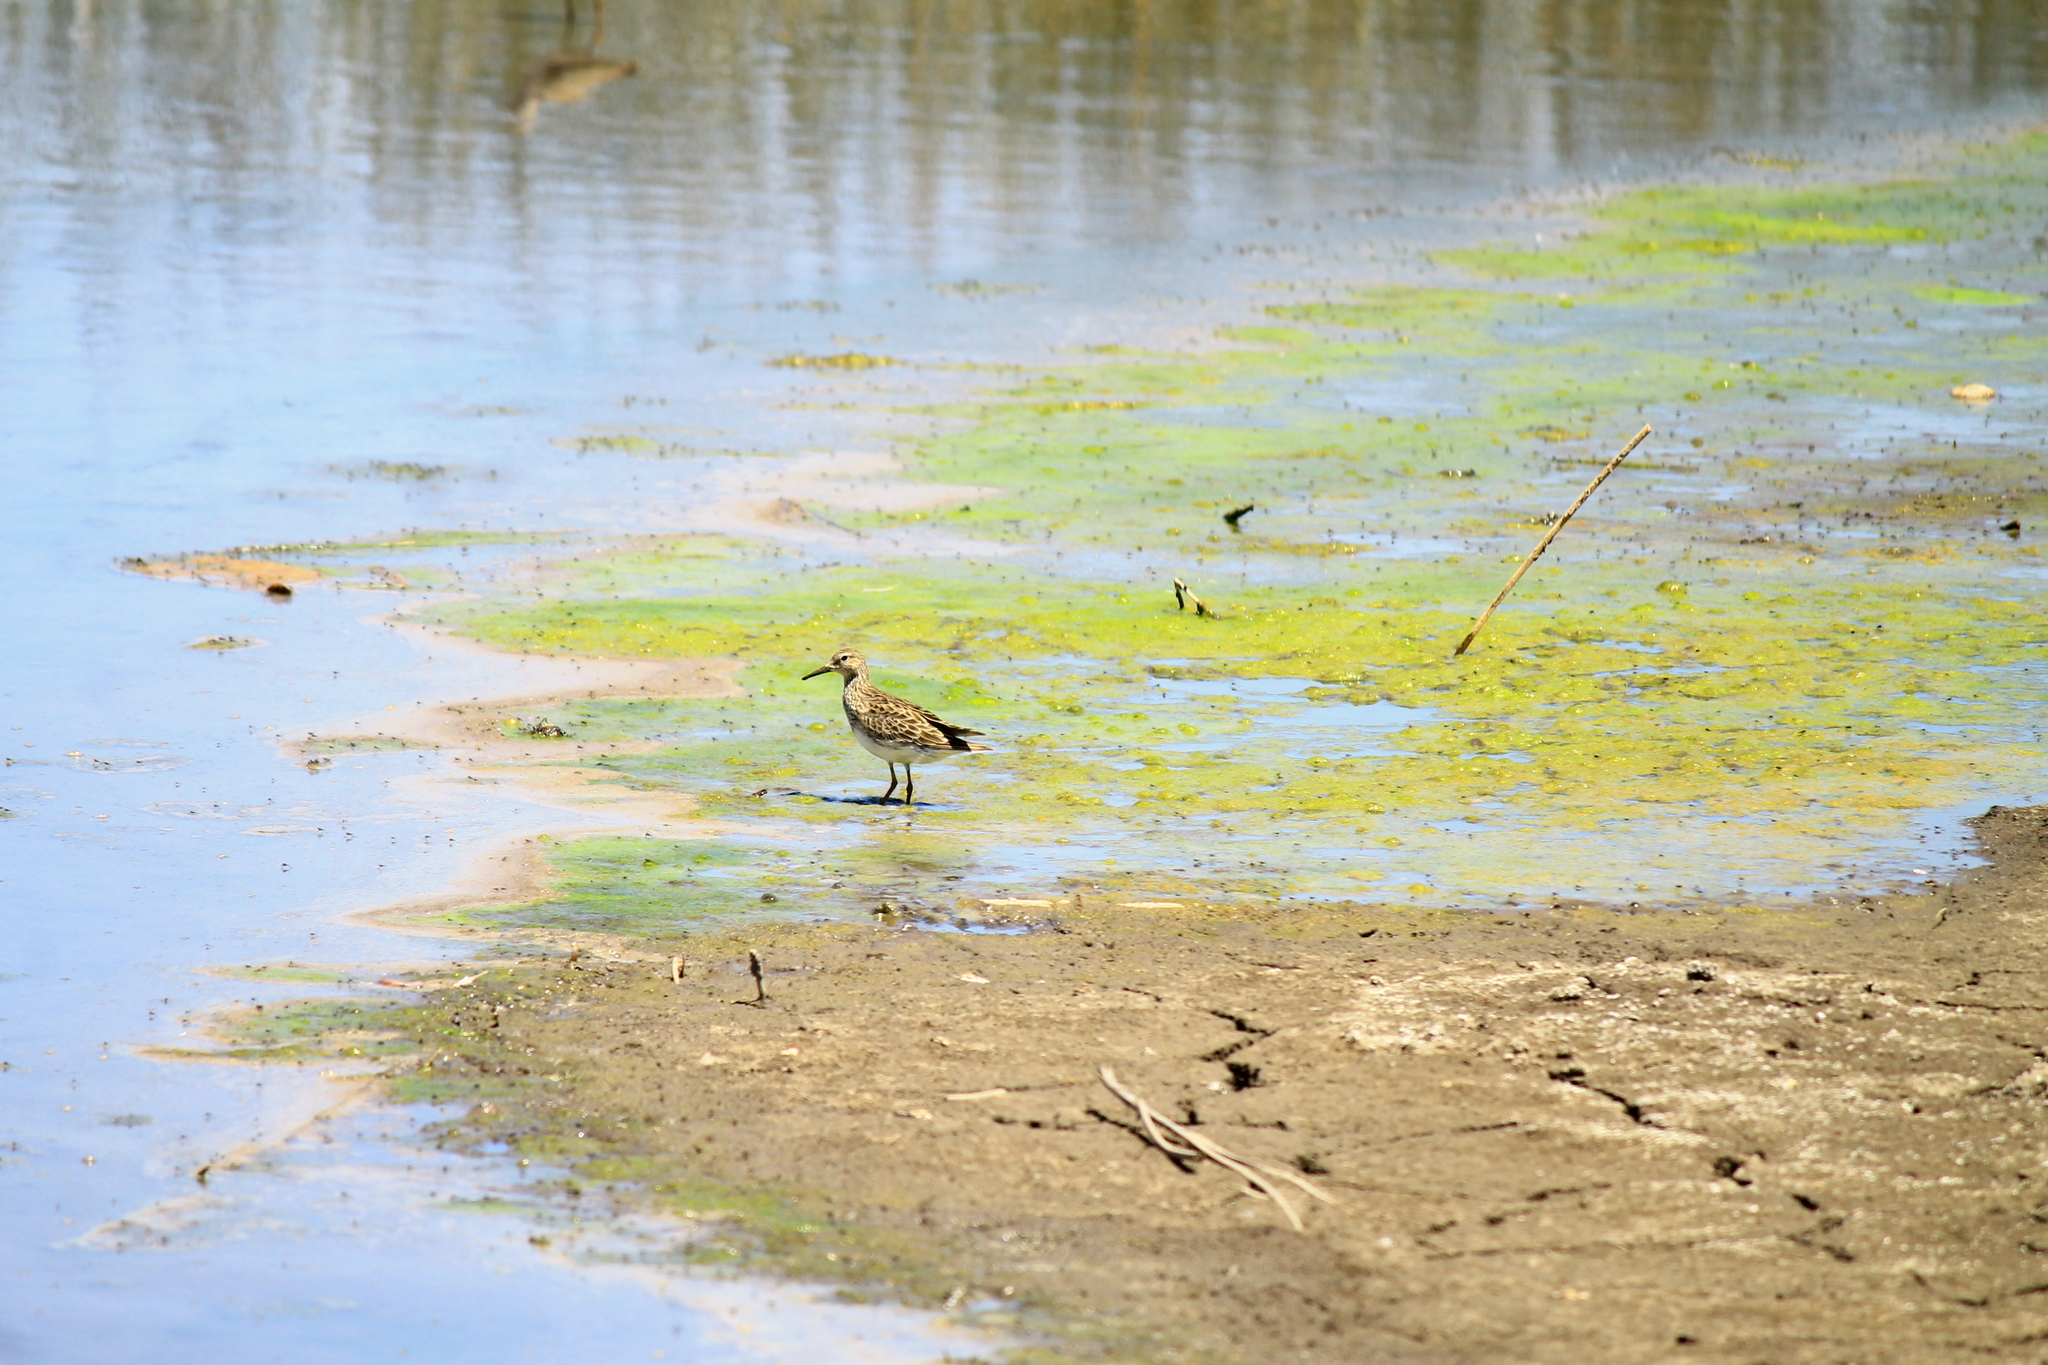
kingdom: Animalia
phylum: Chordata
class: Aves
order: Charadriiformes
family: Scolopacidae
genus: Calidris
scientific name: Calidris melanotos
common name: Pectoral sandpiper
